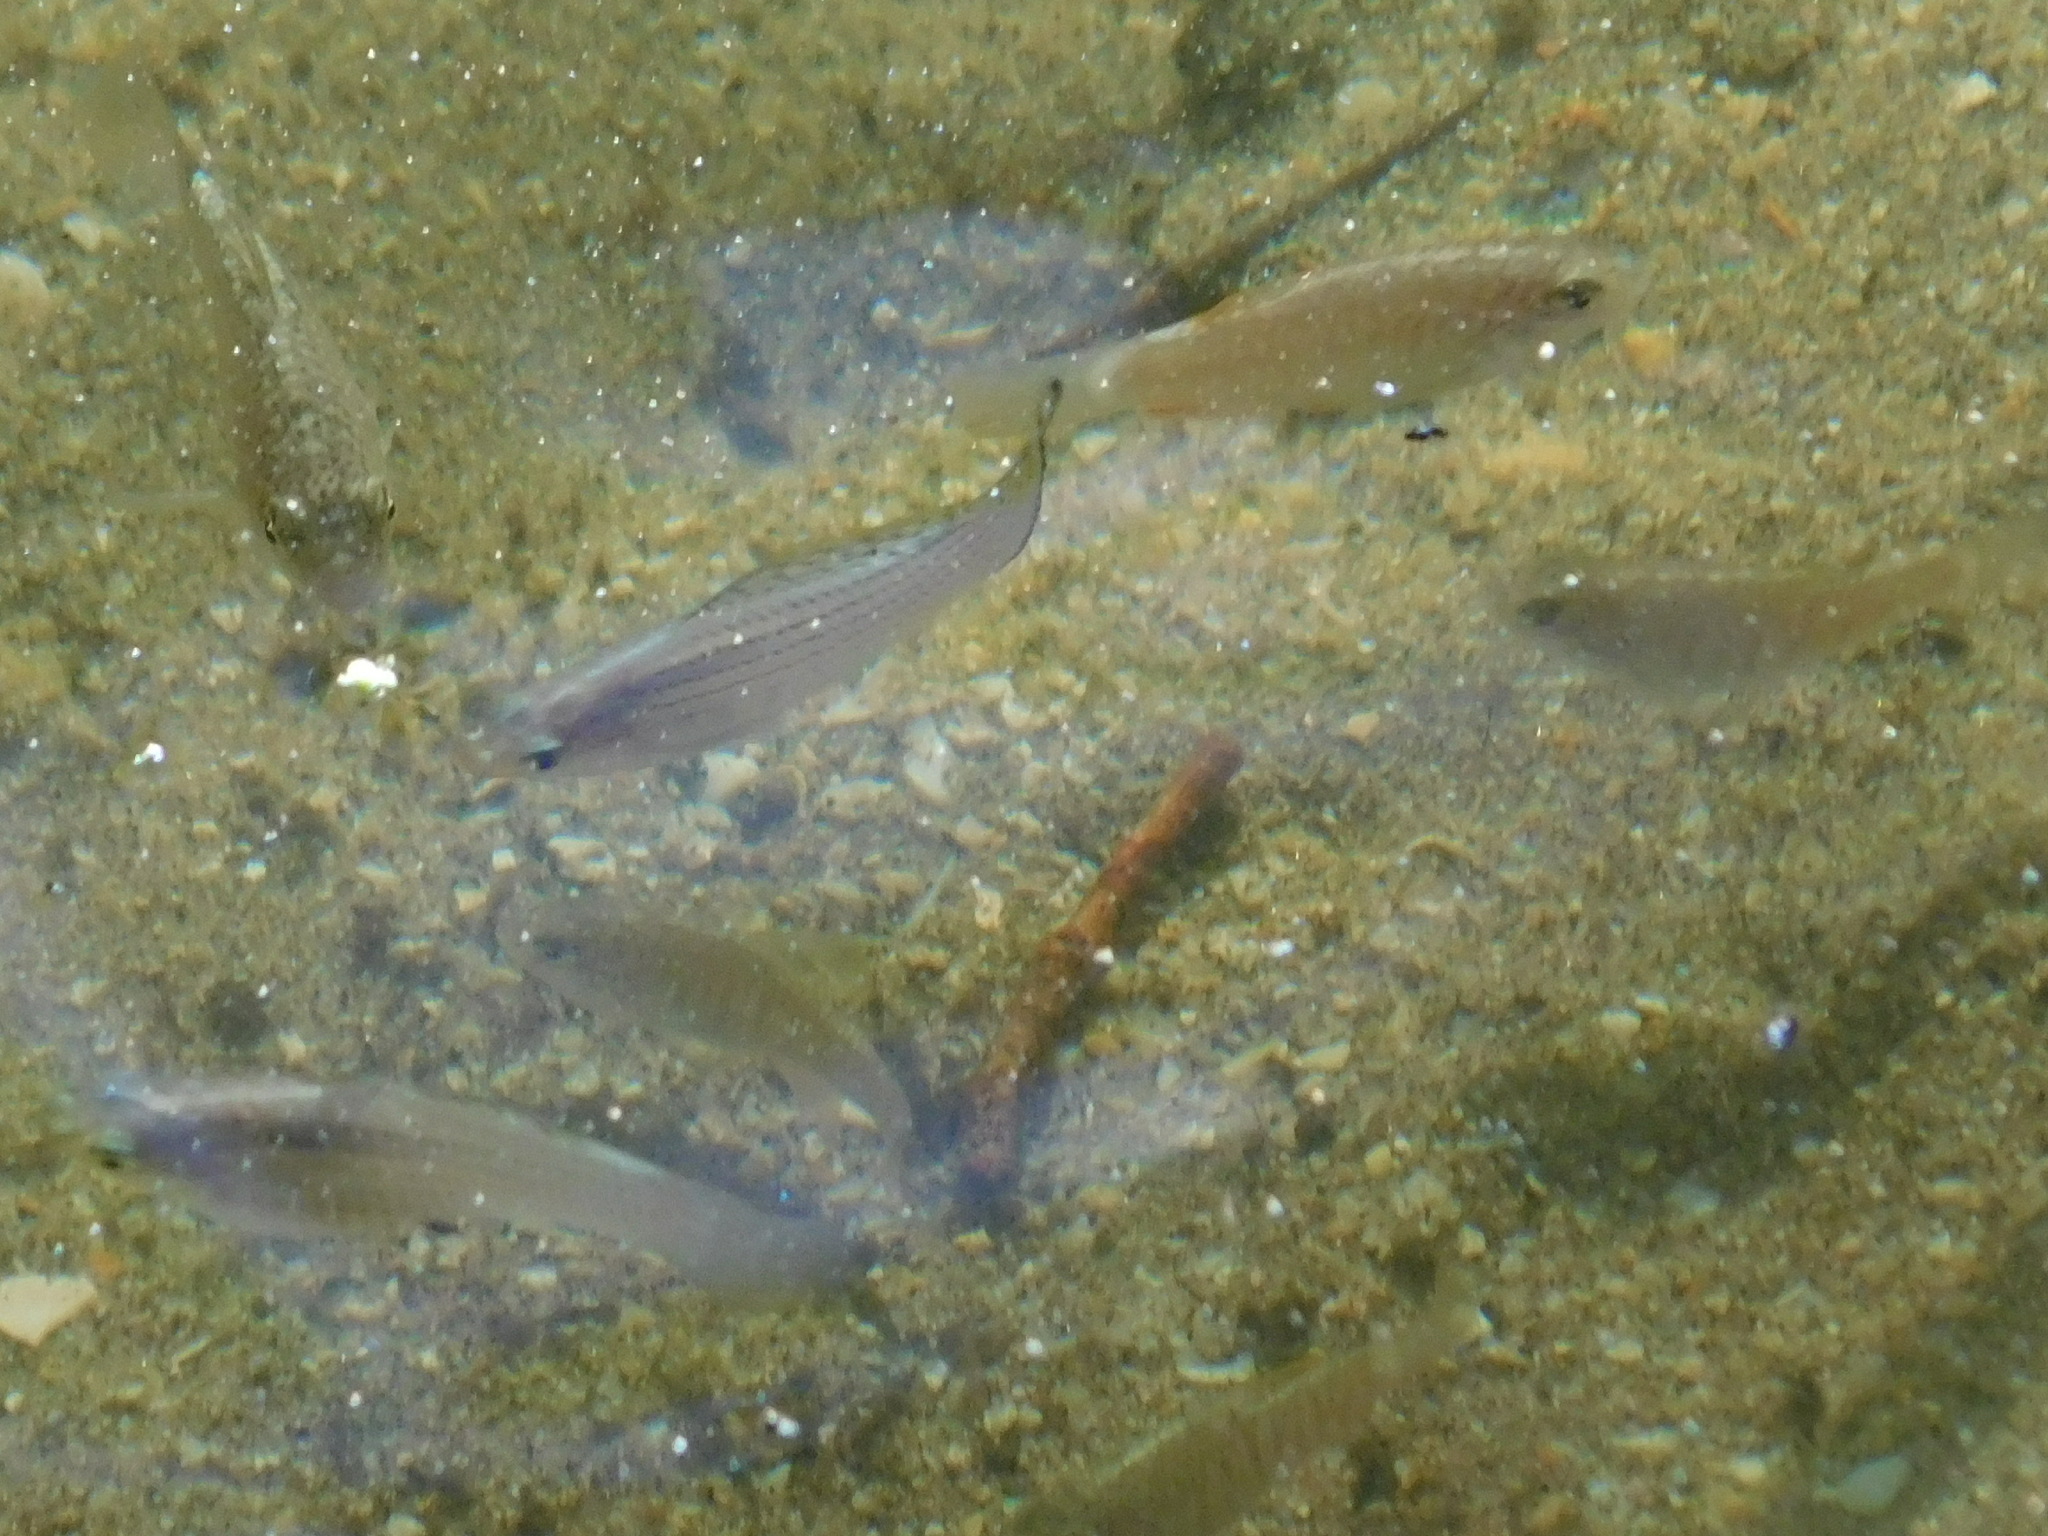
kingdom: Animalia
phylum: Chordata
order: Cyprinodontiformes
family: Poeciliidae
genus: Poecilia
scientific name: Poecilia latipinna
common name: Sailfin molly
